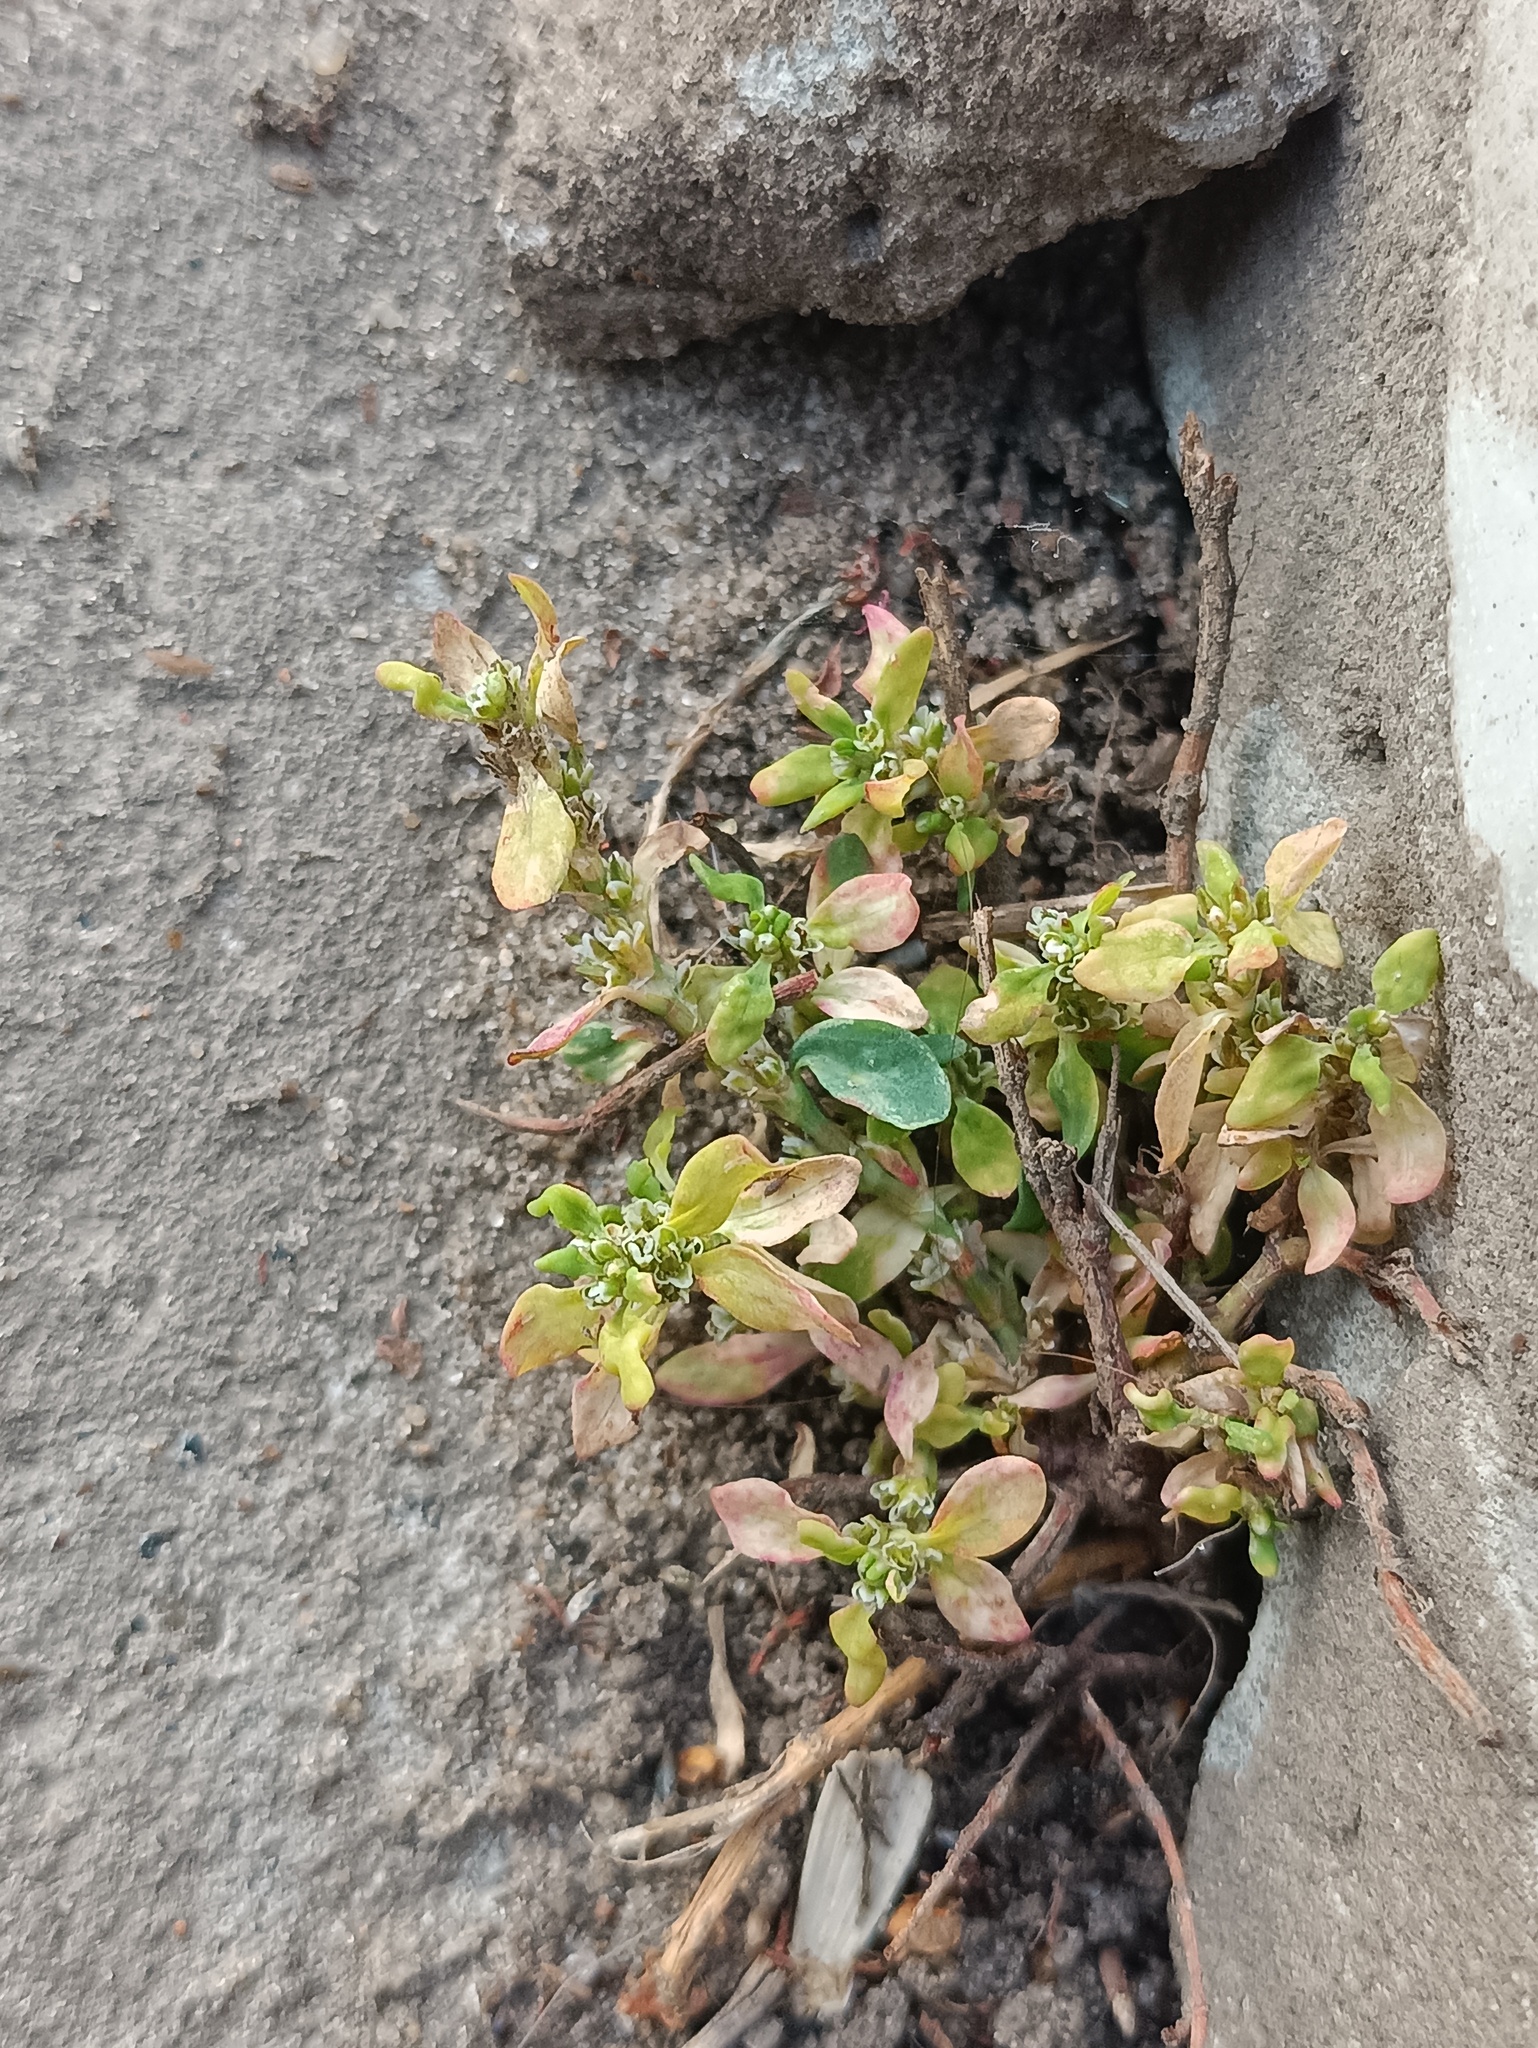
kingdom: Plantae
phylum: Tracheophyta
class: Magnoliopsida
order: Caryophyllales
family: Polygonaceae
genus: Polygonum
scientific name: Polygonum
